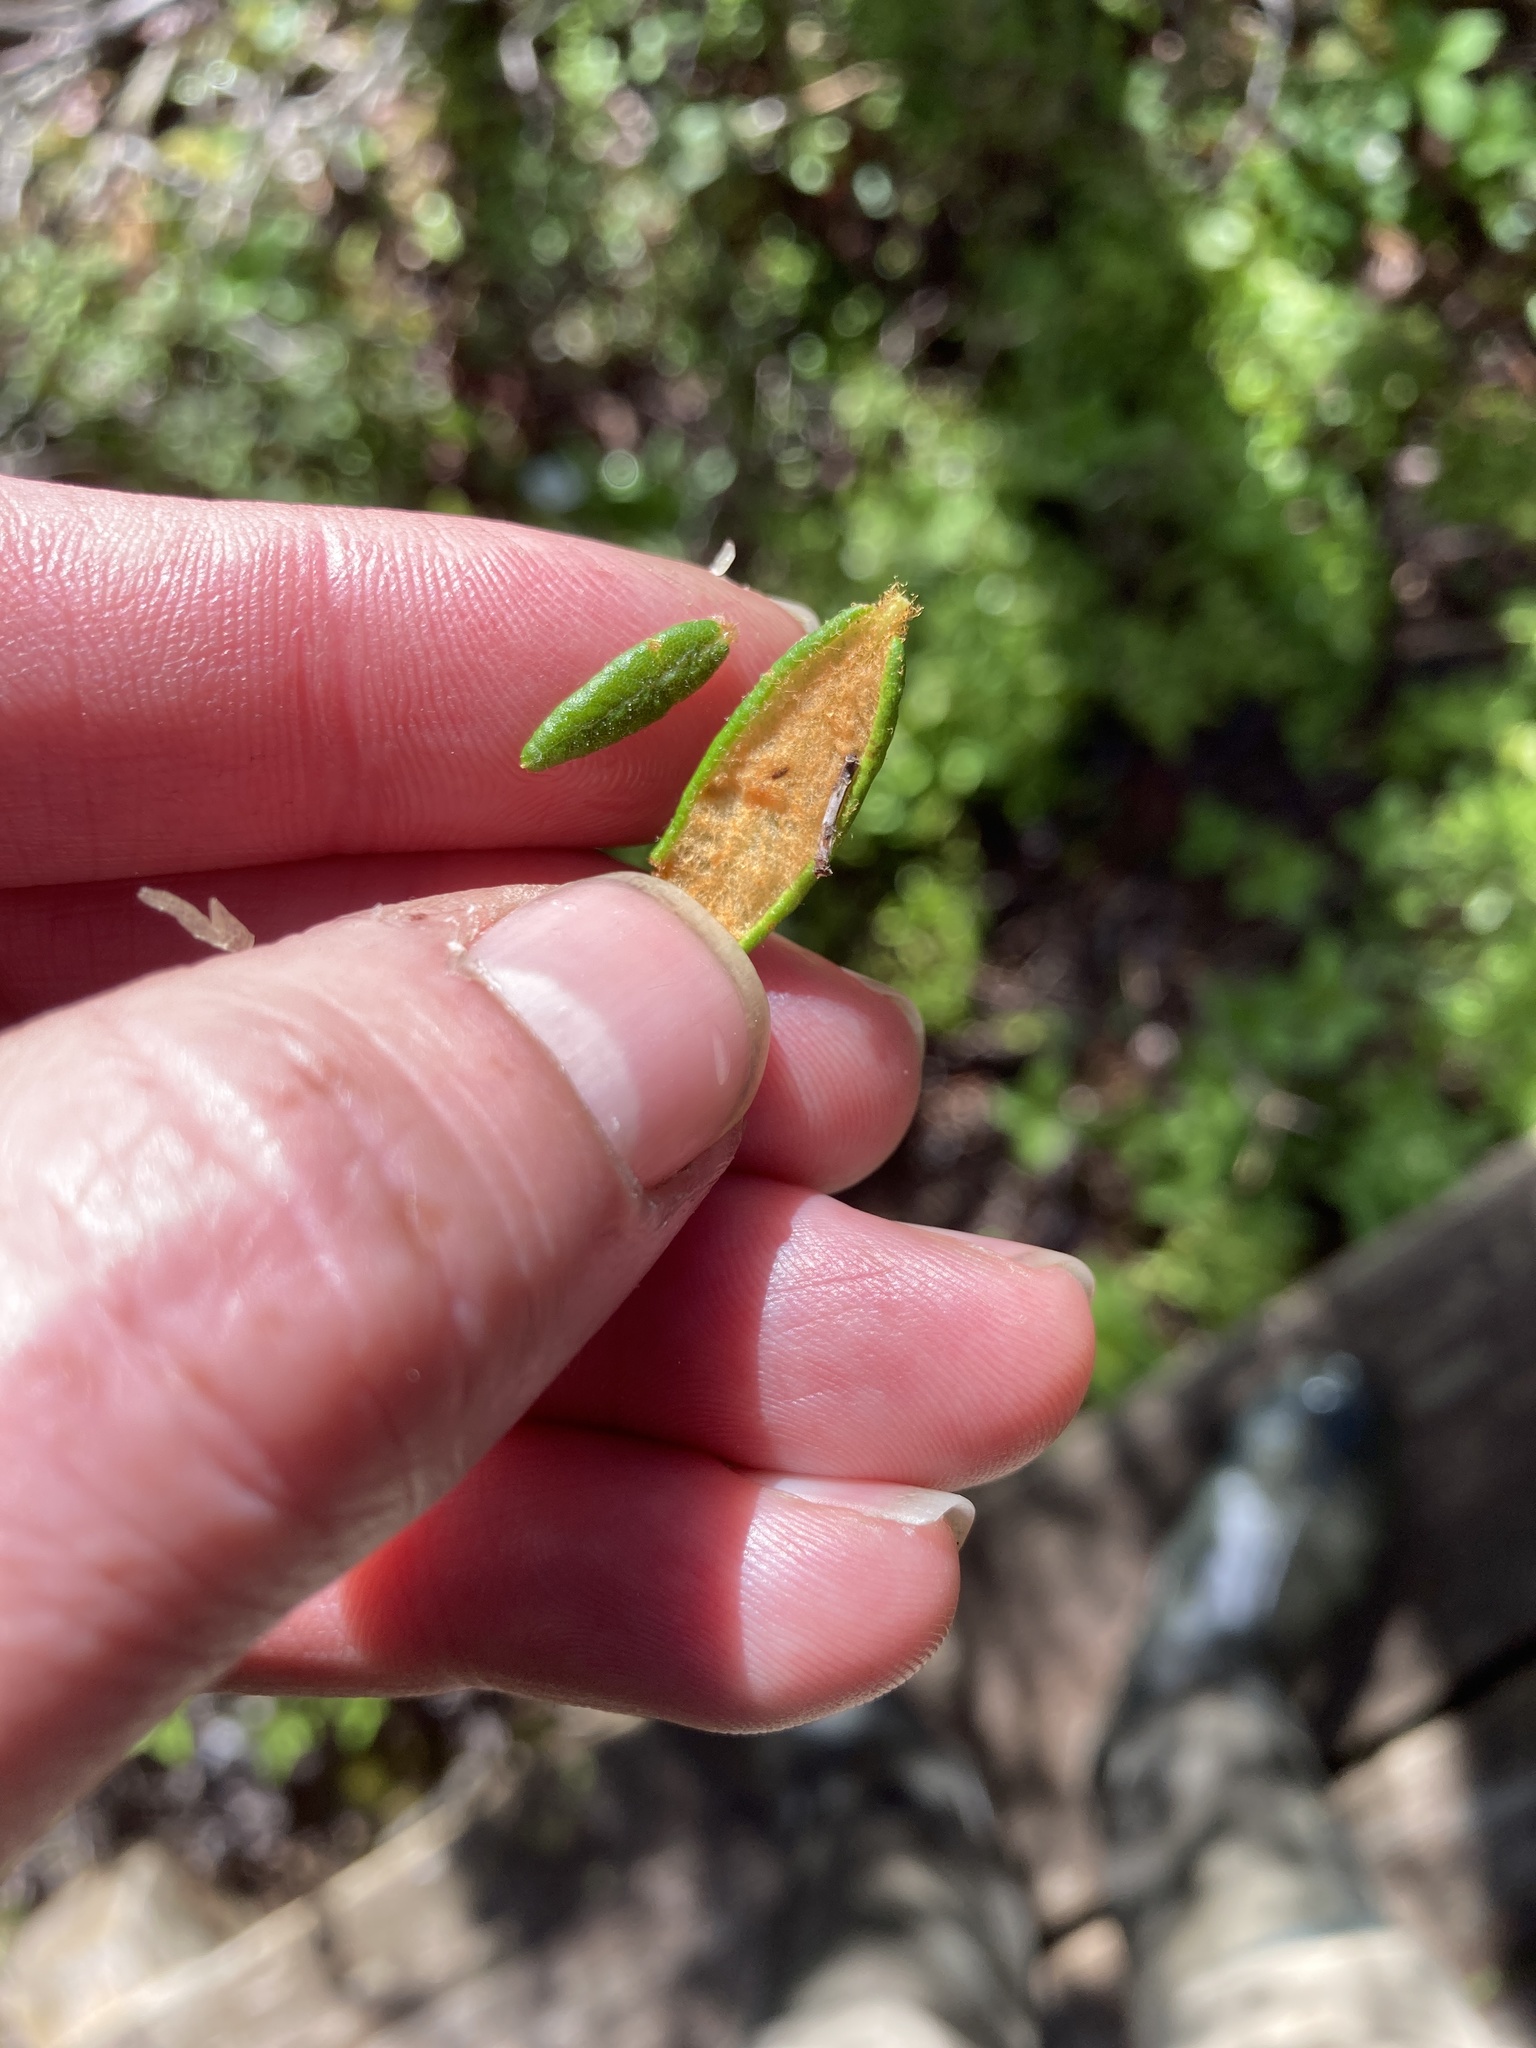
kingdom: Plantae
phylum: Tracheophyta
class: Magnoliopsida
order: Ericales
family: Ericaceae
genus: Rhododendron
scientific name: Rhododendron groenlandicum
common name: Bog labrador tea
